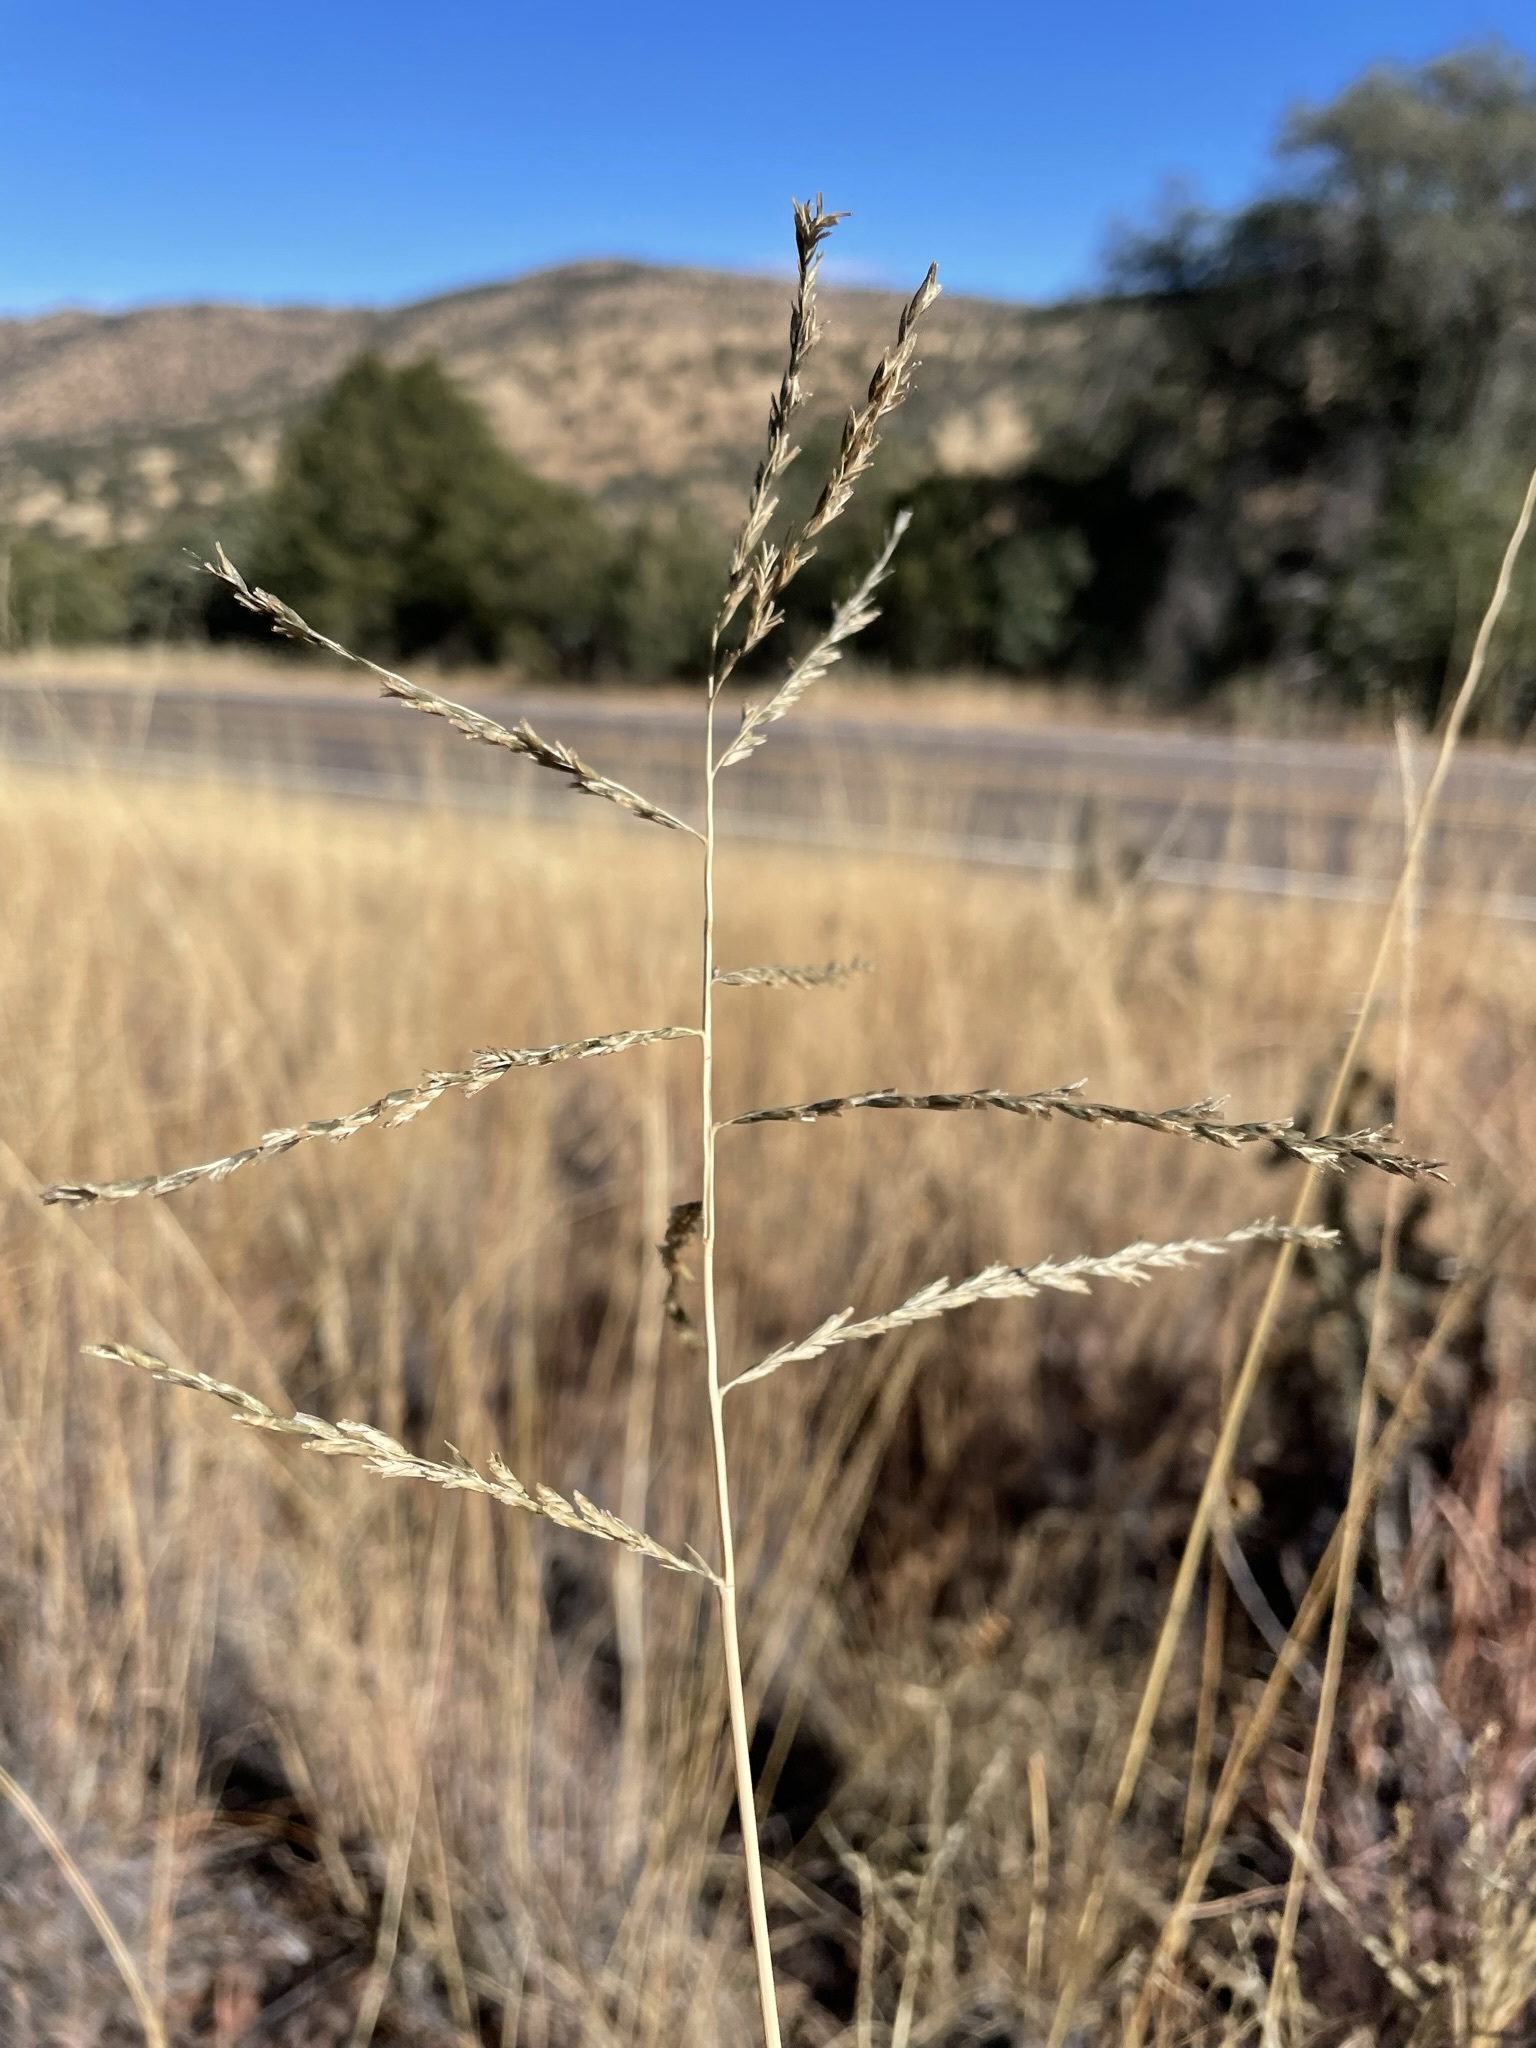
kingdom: Plantae
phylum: Tracheophyta
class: Liliopsida
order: Poales
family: Poaceae
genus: Disakisperma
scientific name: Disakisperma dubium
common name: Green sprangletop
